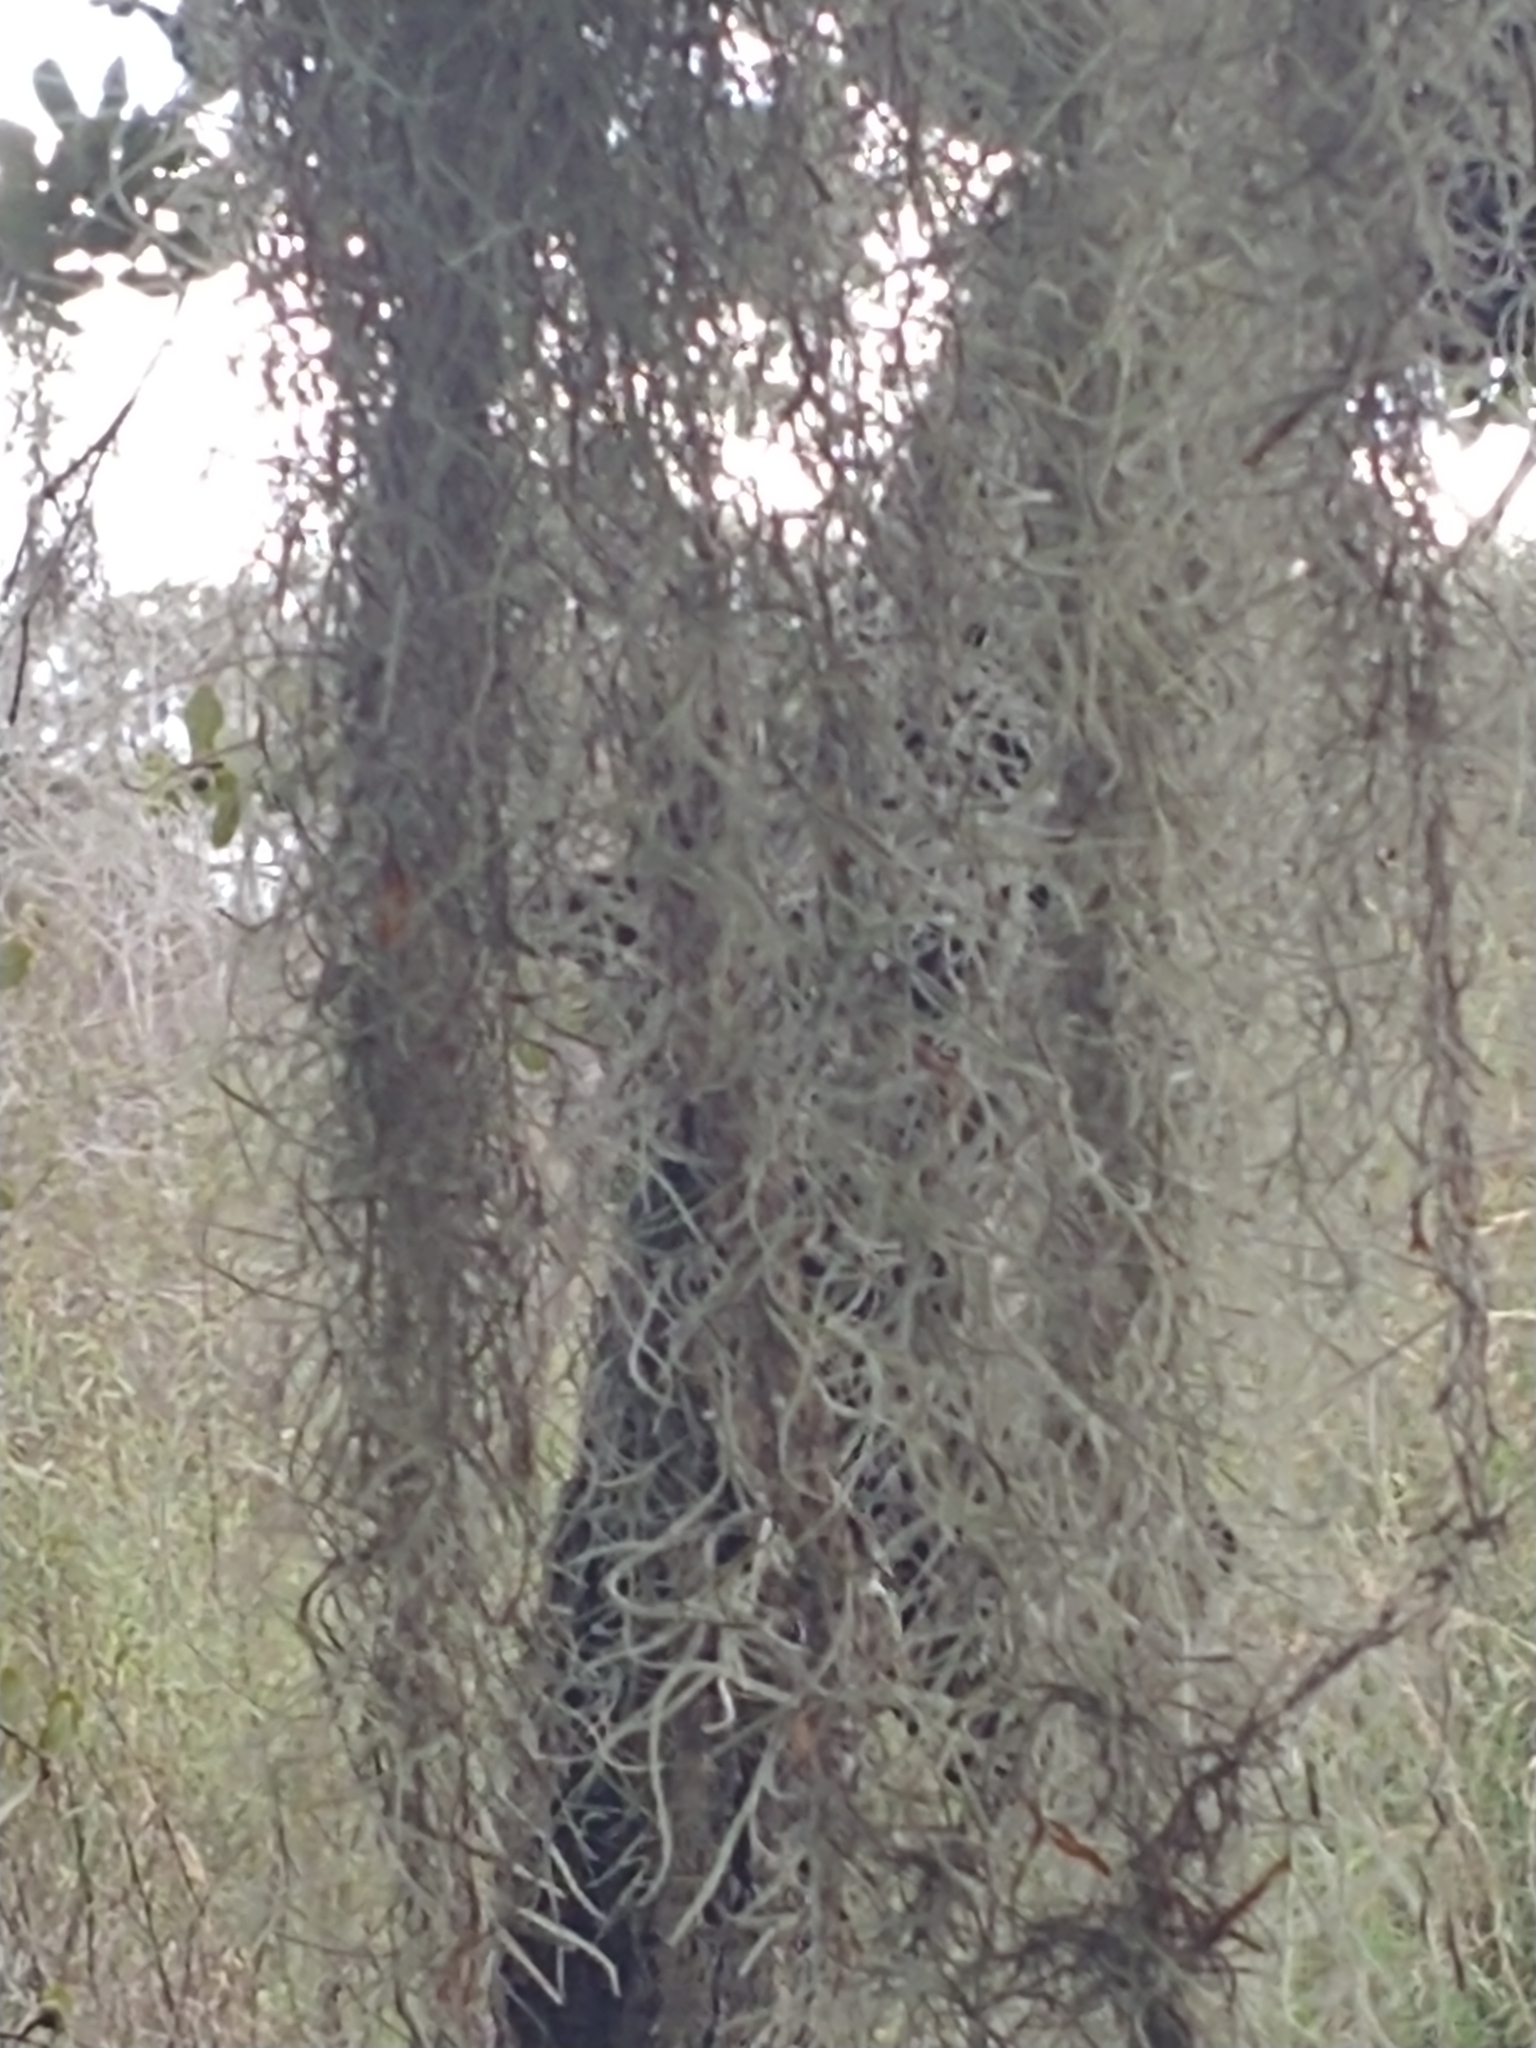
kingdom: Plantae
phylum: Tracheophyta
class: Liliopsida
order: Poales
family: Bromeliaceae
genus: Tillandsia
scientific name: Tillandsia usneoides
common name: Spanish moss
